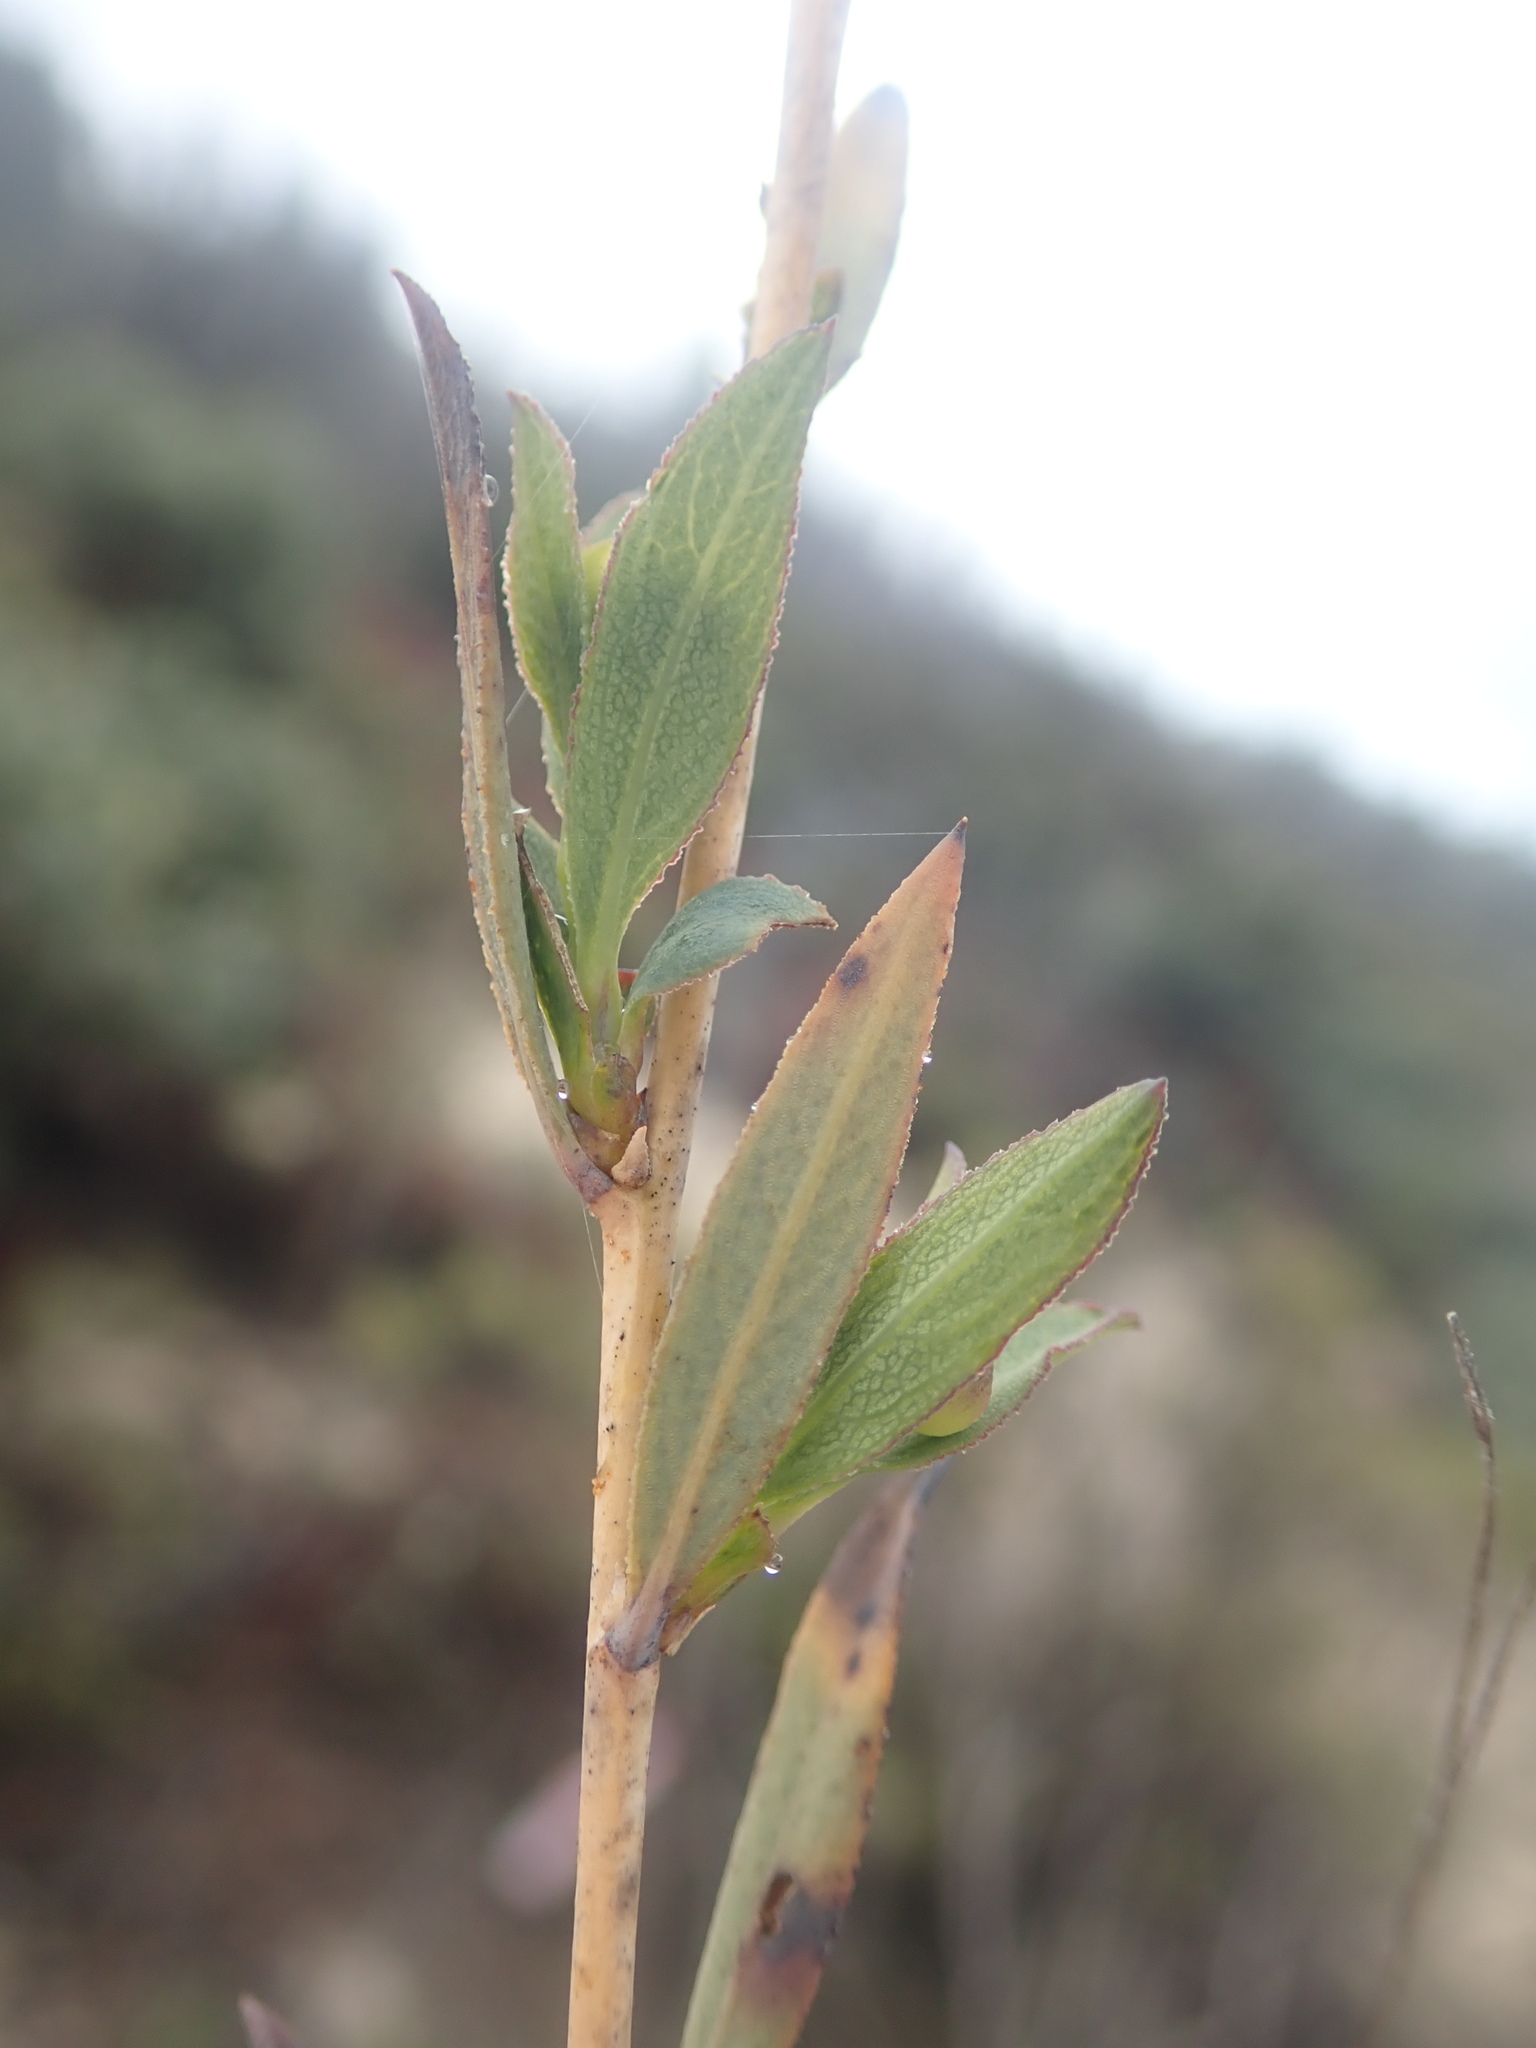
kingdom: Plantae
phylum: Tracheophyta
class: Magnoliopsida
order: Ranunculales
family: Papaveraceae
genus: Dendromecon
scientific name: Dendromecon rigida
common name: Tree poppy
